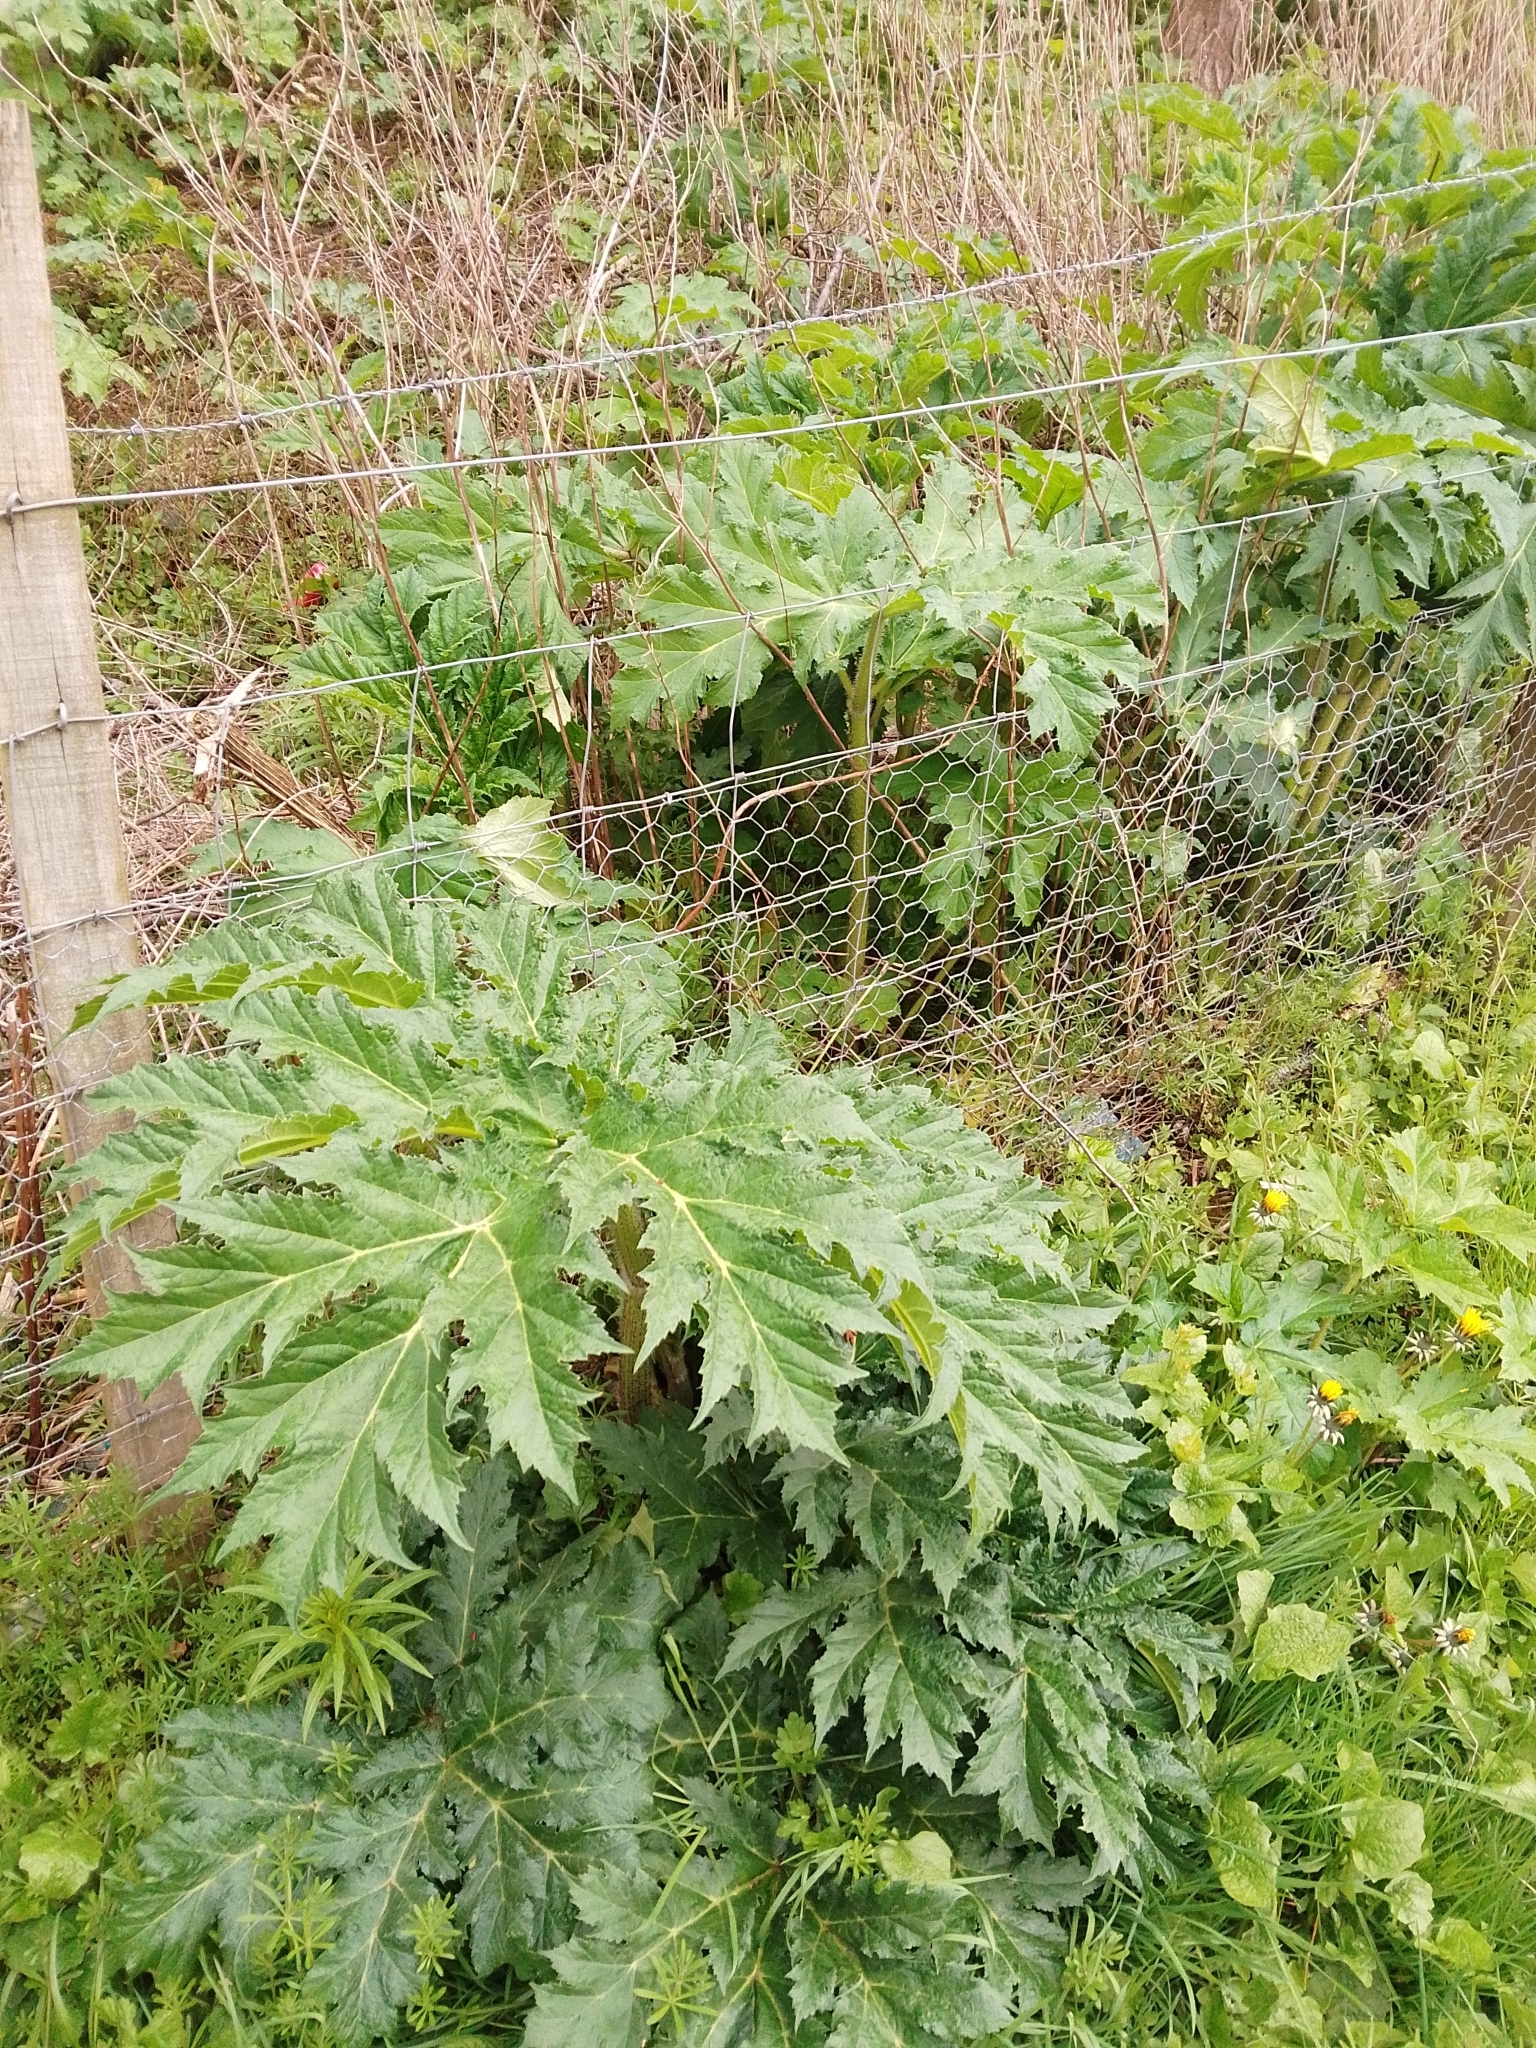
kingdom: Plantae
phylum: Tracheophyta
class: Magnoliopsida
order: Apiales
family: Apiaceae
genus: Heracleum
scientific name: Heracleum mantegazzianum
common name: Giant hogweed
